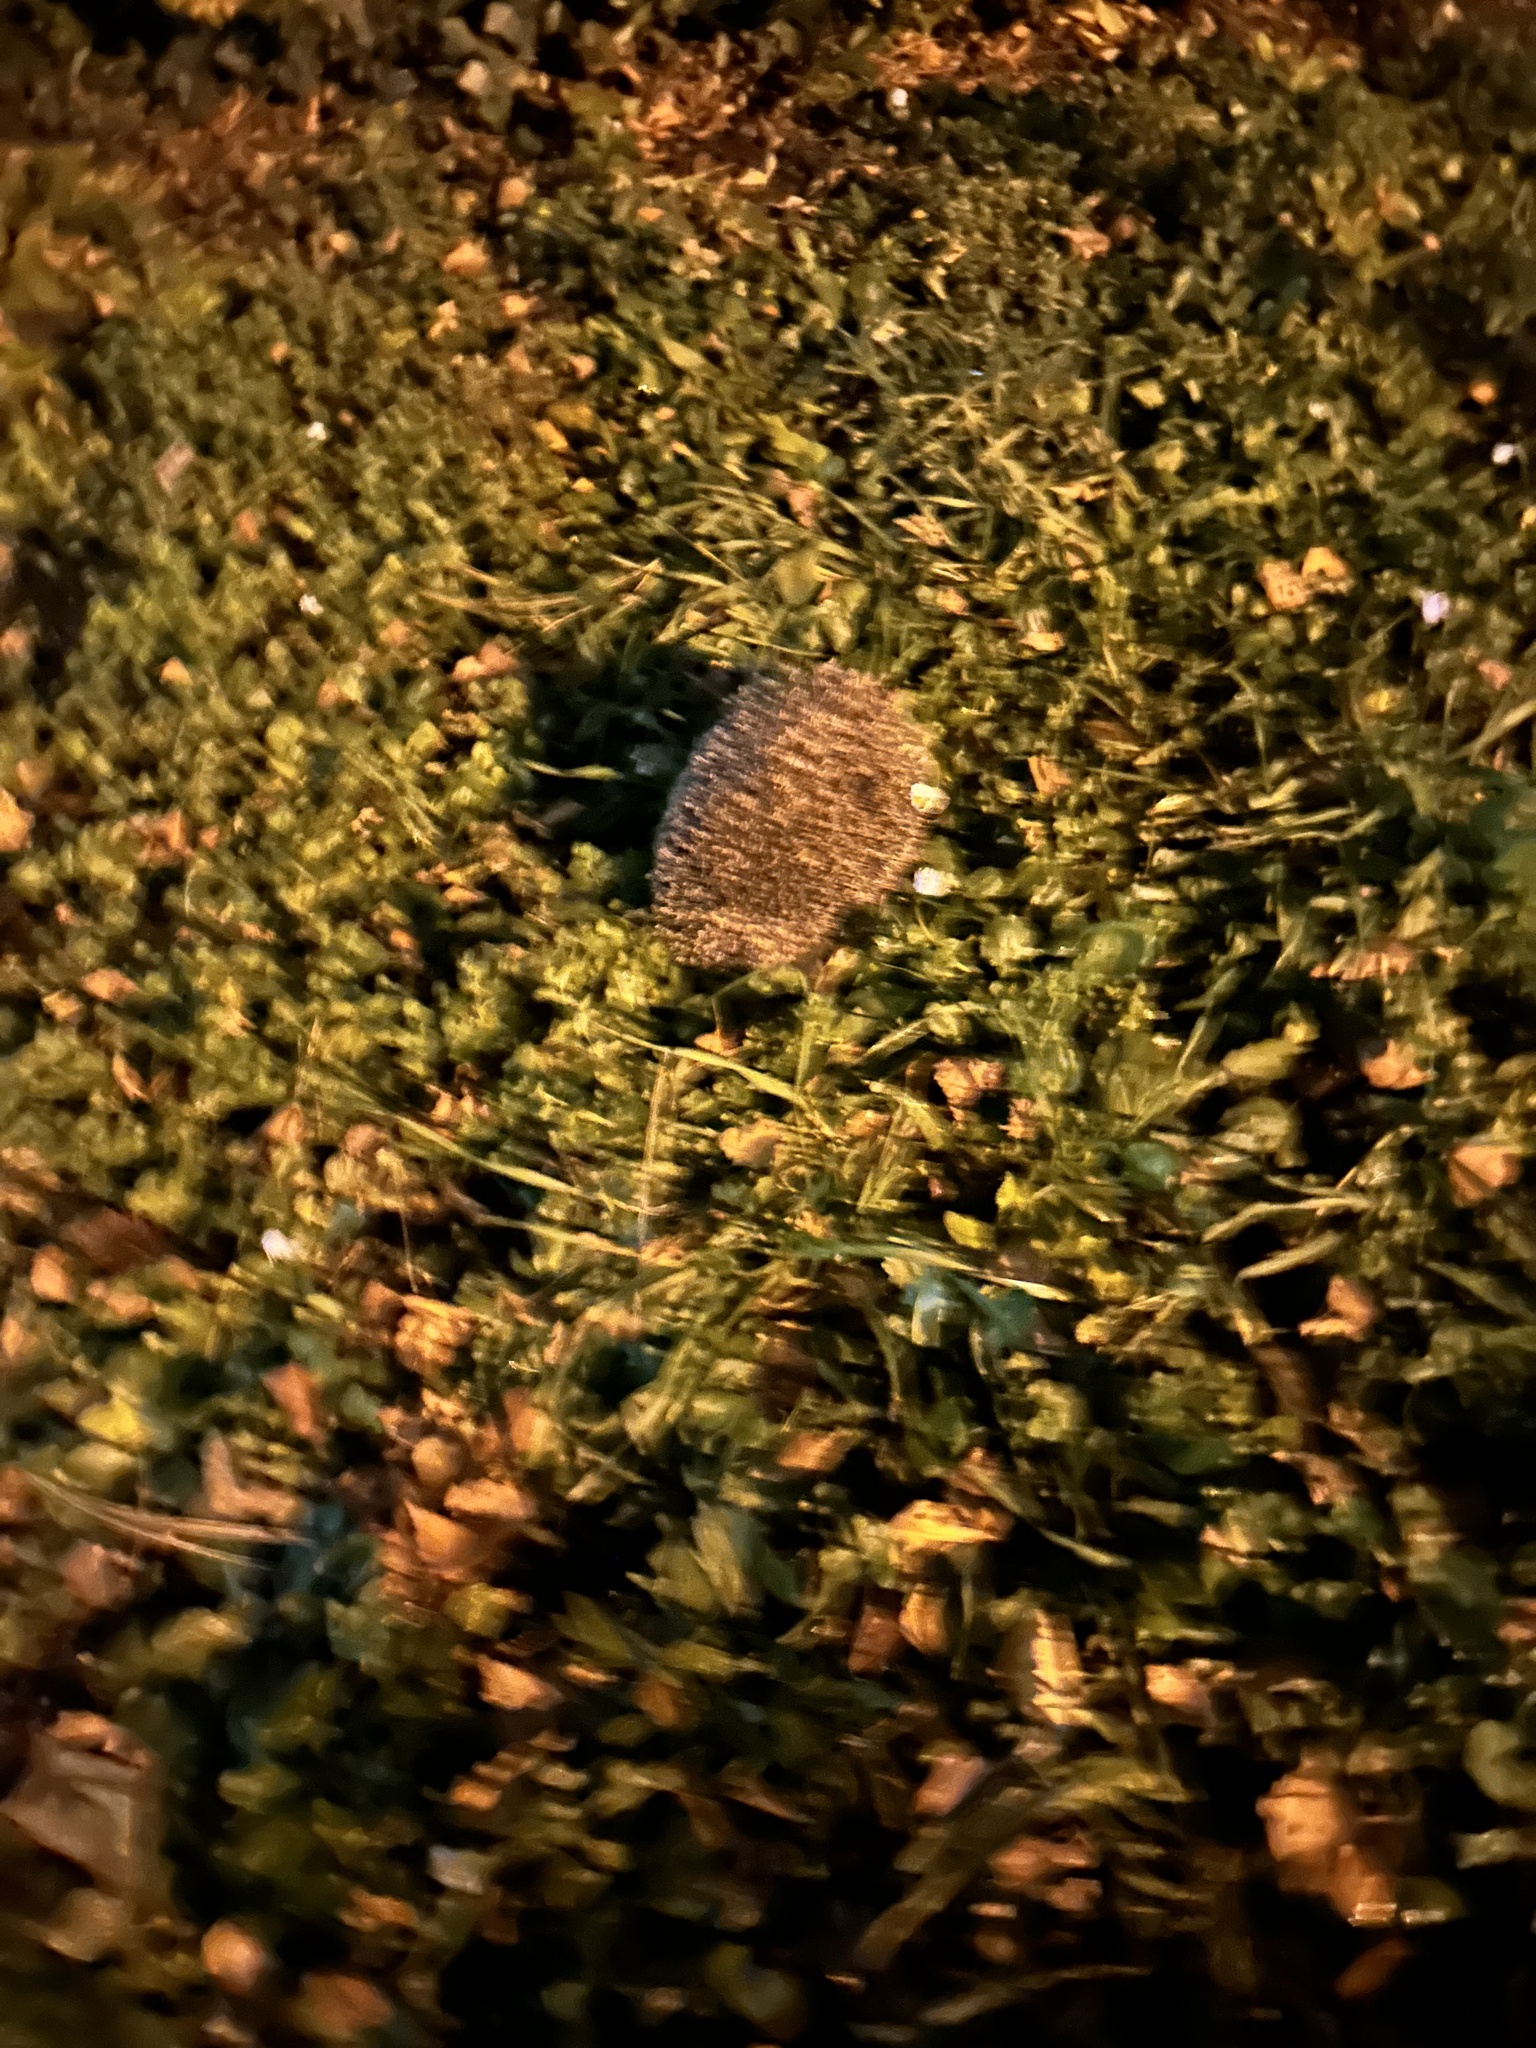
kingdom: Animalia
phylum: Chordata
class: Mammalia
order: Erinaceomorpha
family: Erinaceidae
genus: Erinaceus
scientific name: Erinaceus europaeus
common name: West european hedgehog
